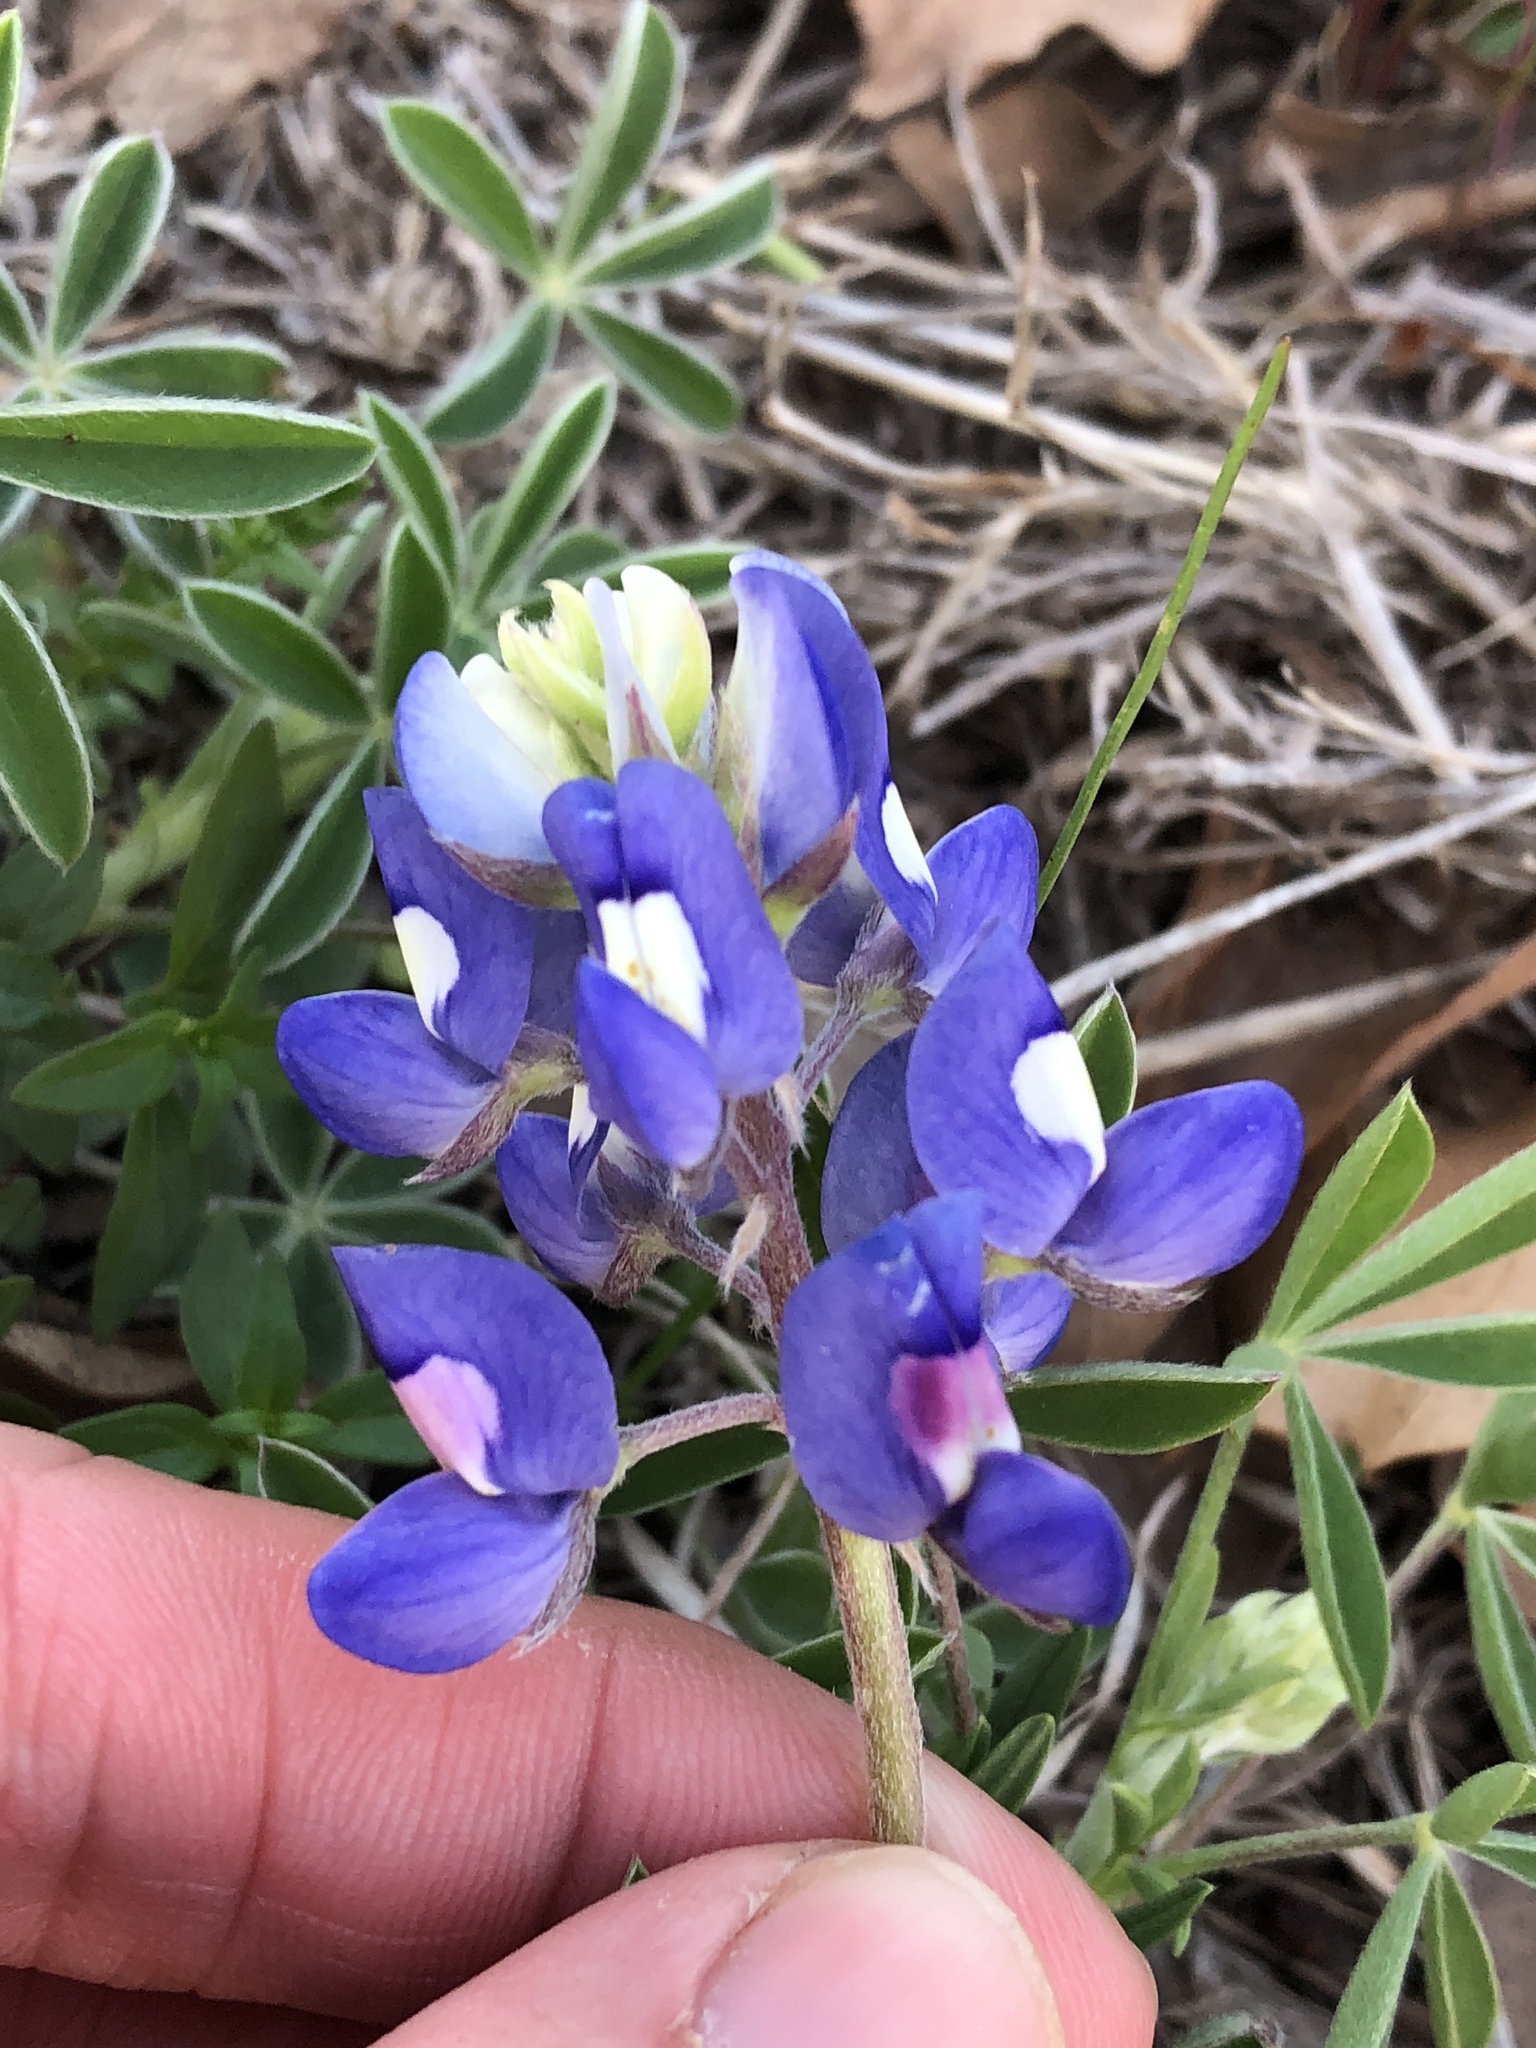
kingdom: Plantae
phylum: Tracheophyta
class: Magnoliopsida
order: Fabales
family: Fabaceae
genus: Lupinus
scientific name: Lupinus texensis
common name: Texas bluebonnet
